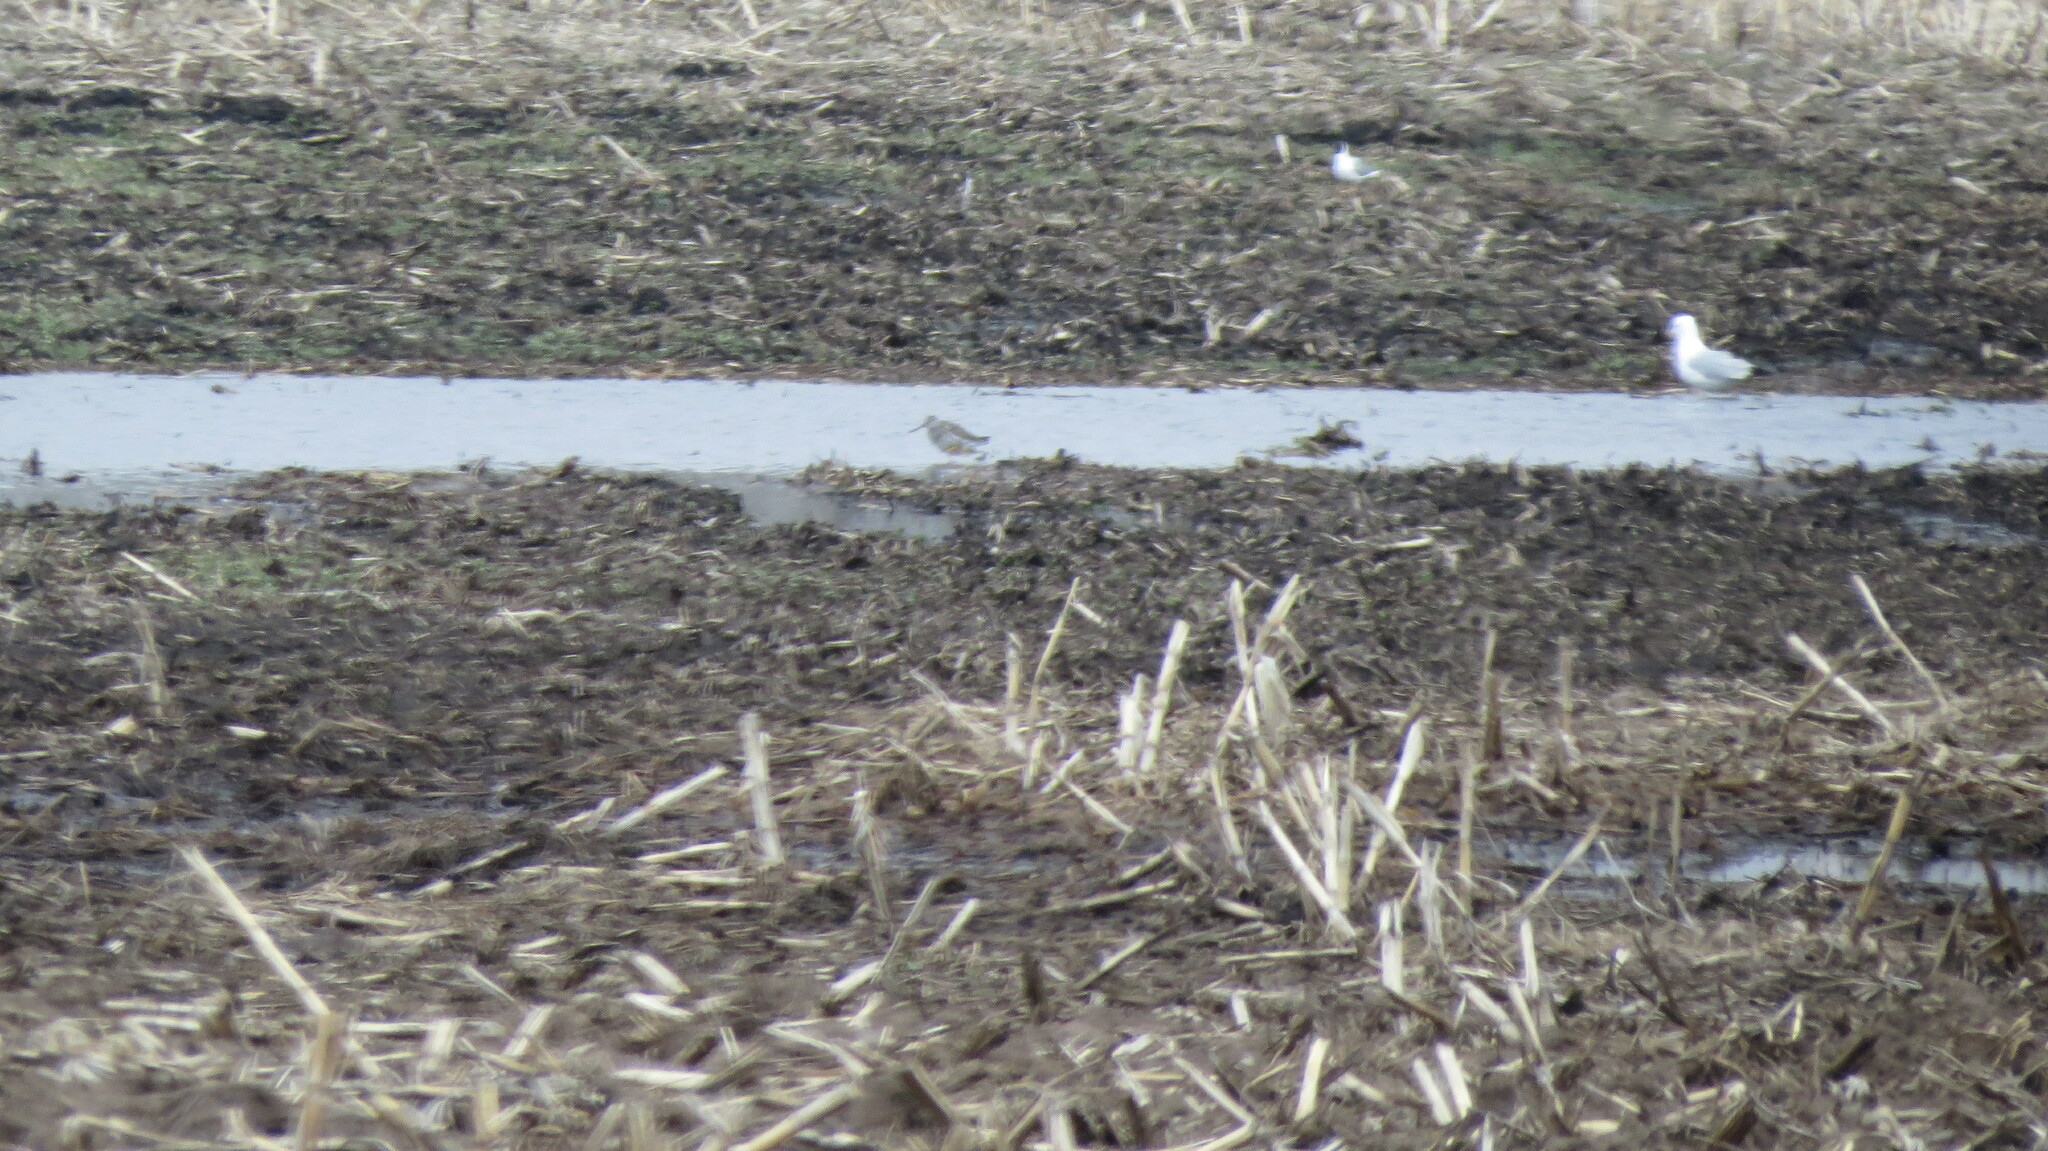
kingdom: Animalia
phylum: Chordata
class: Aves
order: Charadriiformes
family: Scolopacidae
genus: Tringa
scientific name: Tringa melanoleuca
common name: Greater yellowlegs
